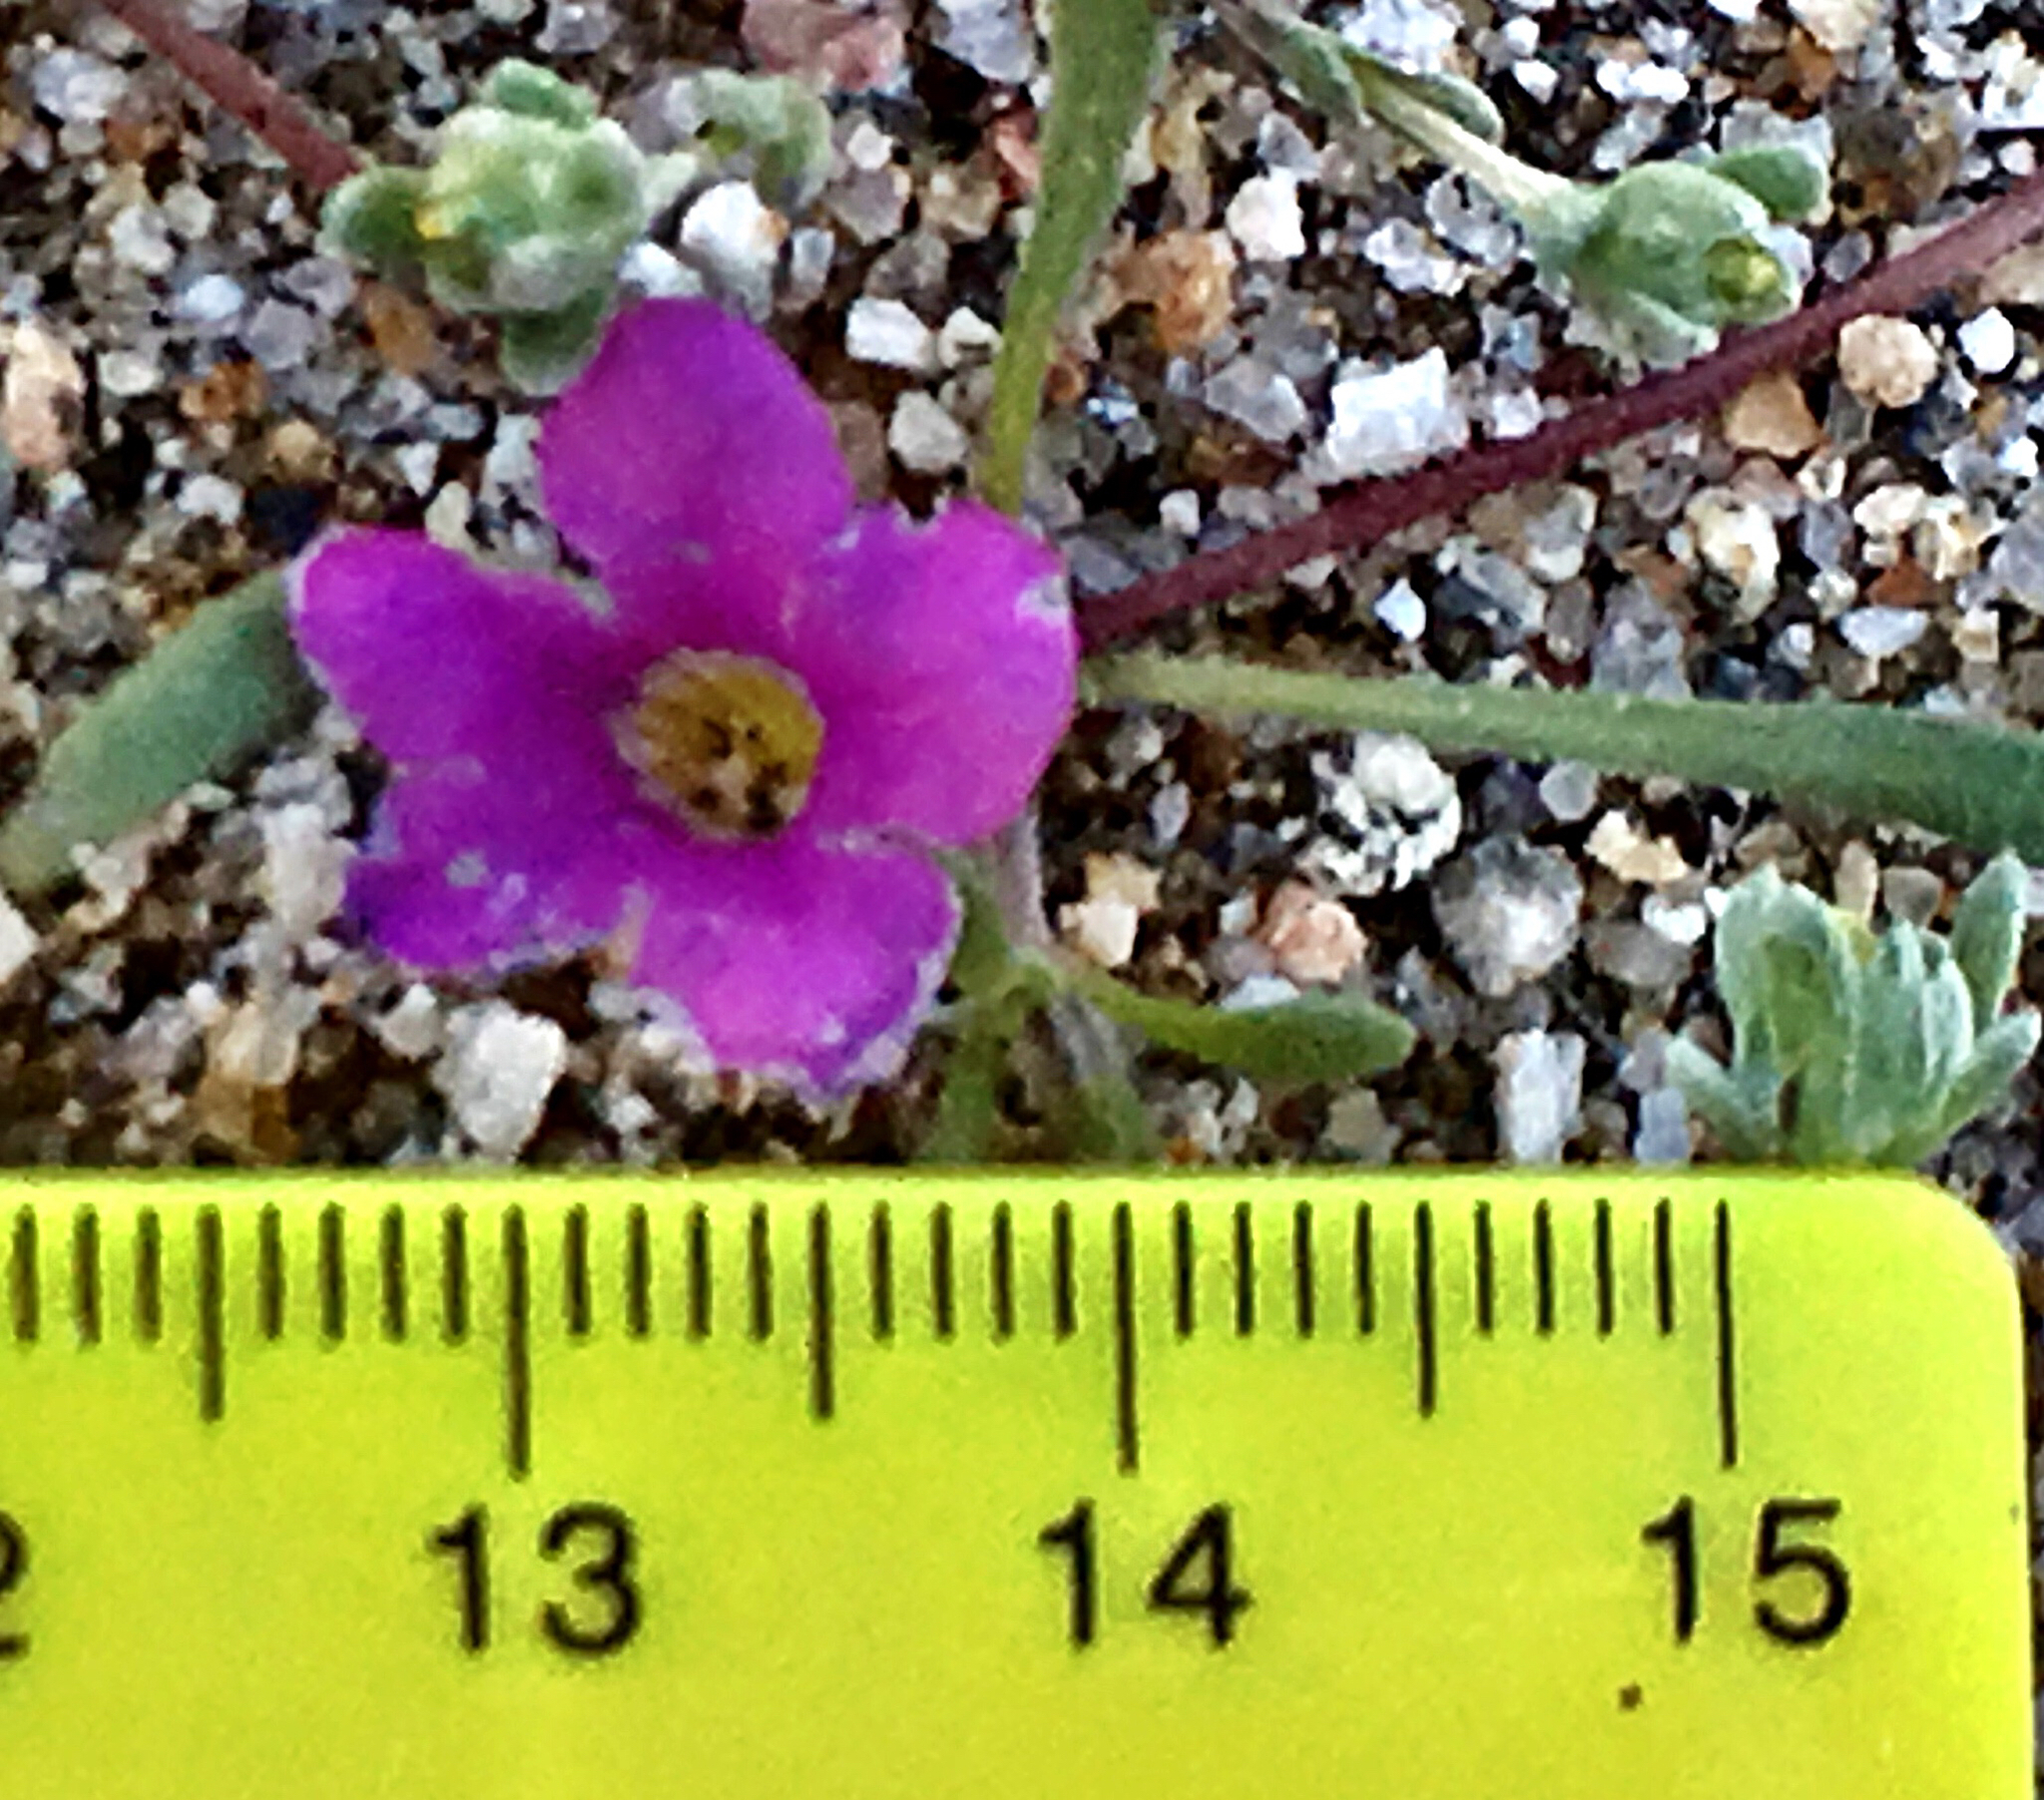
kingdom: Plantae
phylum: Tracheophyta
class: Magnoliopsida
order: Boraginales
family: Namaceae
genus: Nama
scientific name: Nama demissa
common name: Leafy nama
